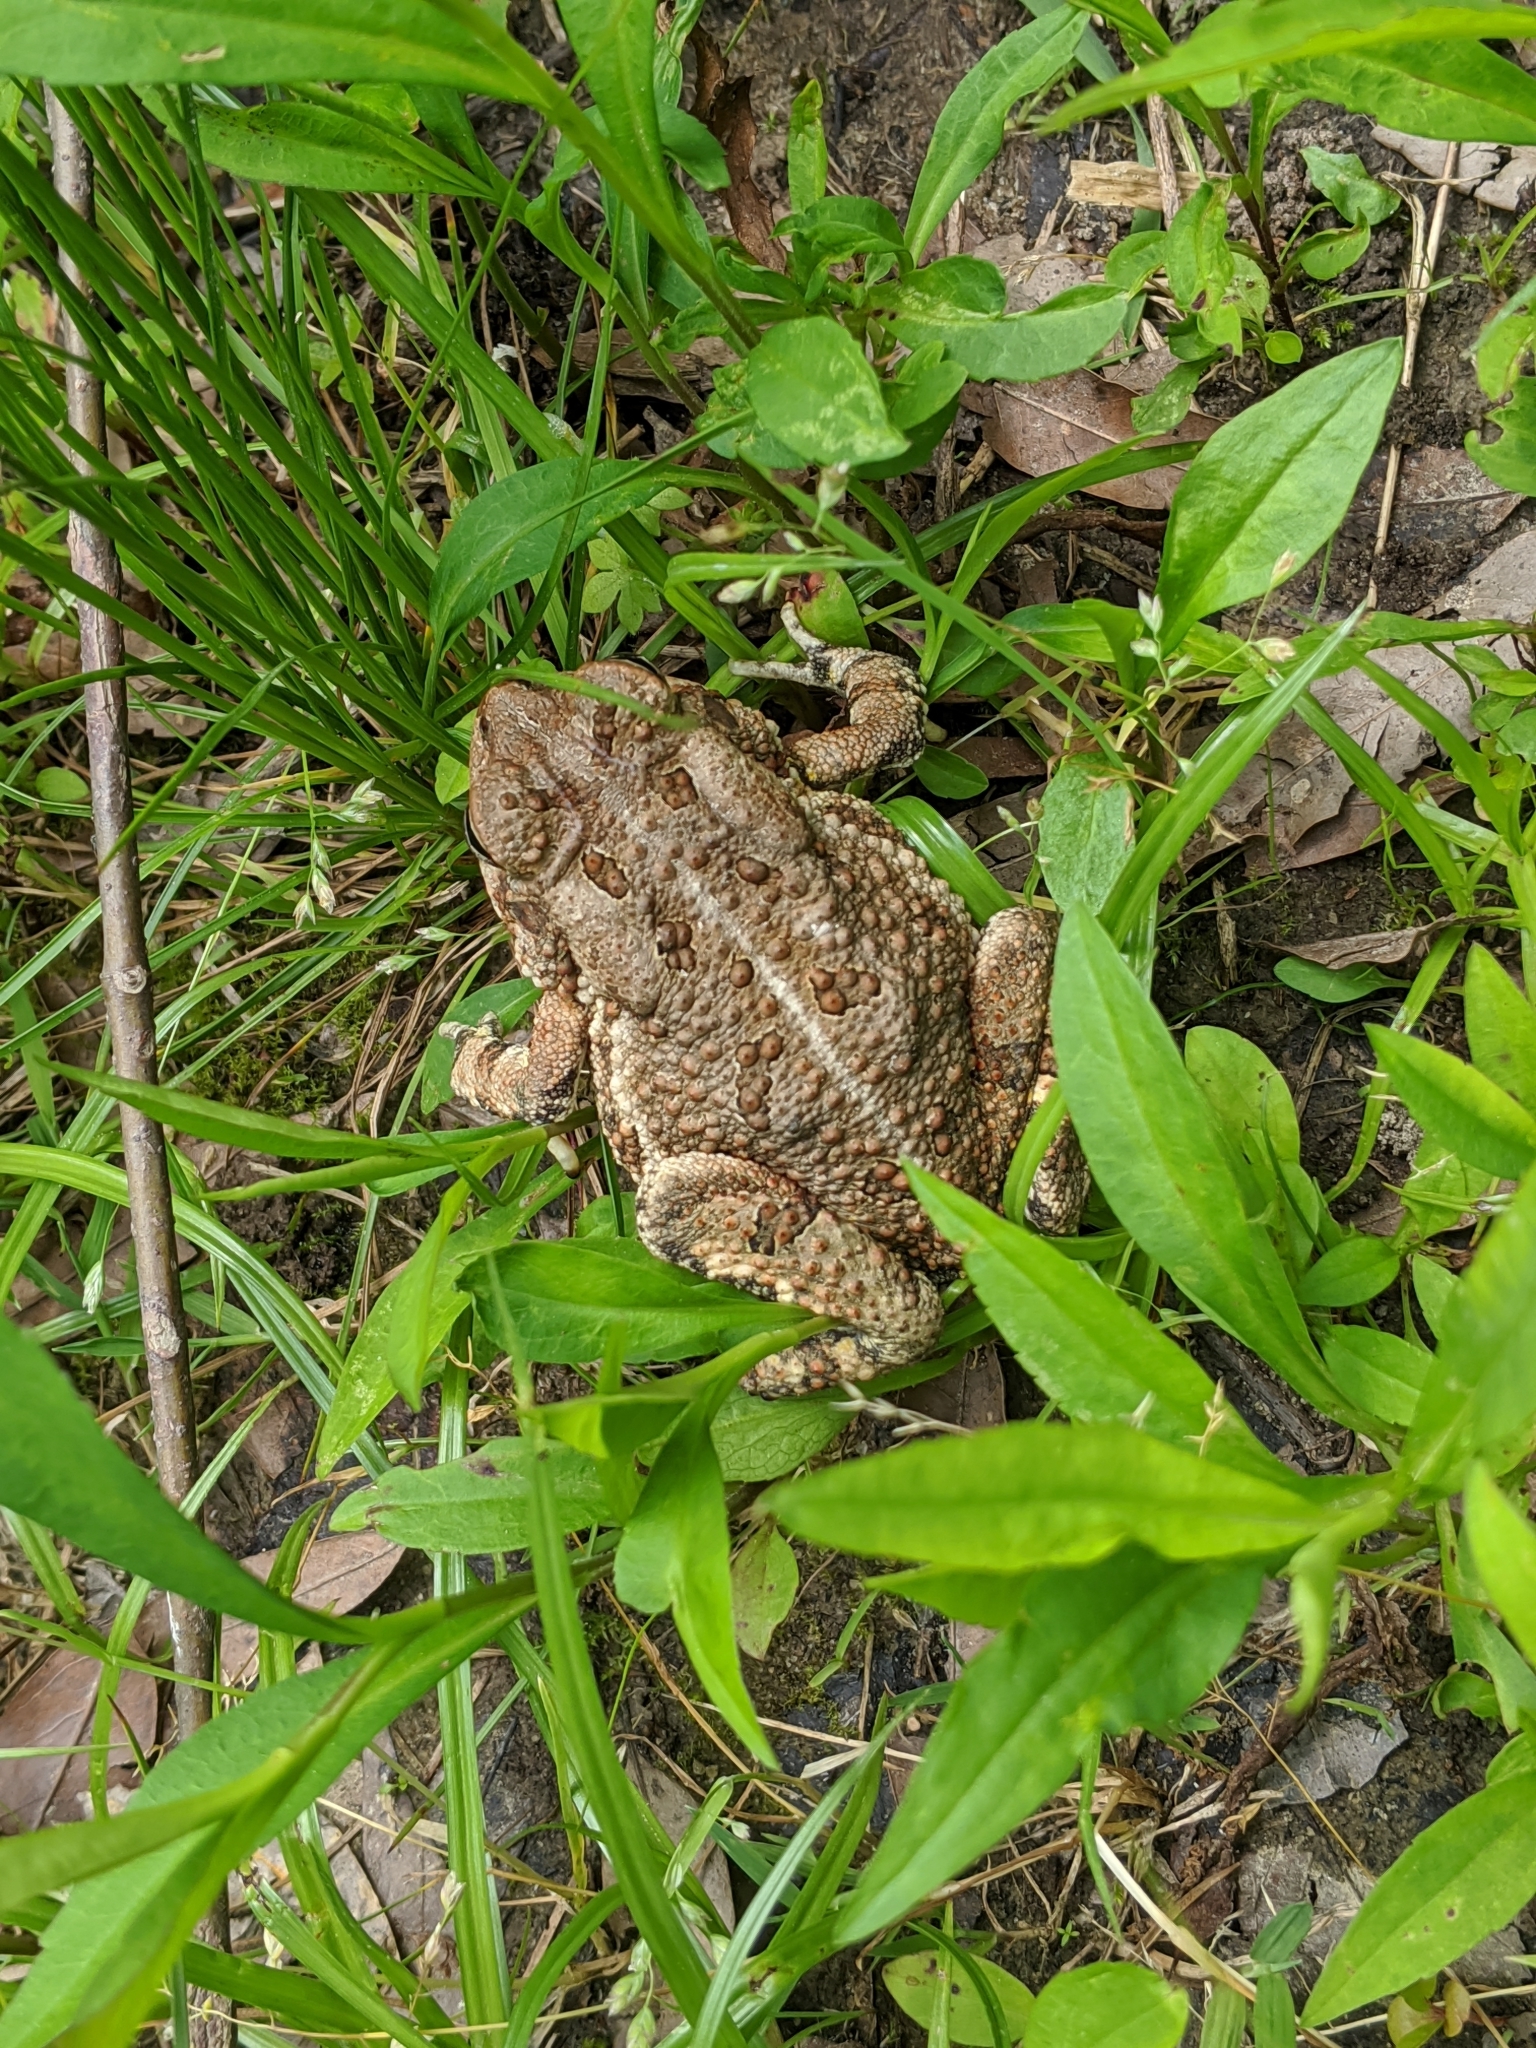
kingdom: Animalia
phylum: Chordata
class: Amphibia
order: Anura
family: Bufonidae
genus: Anaxyrus
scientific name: Anaxyrus fowleri
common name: Fowler's toad
